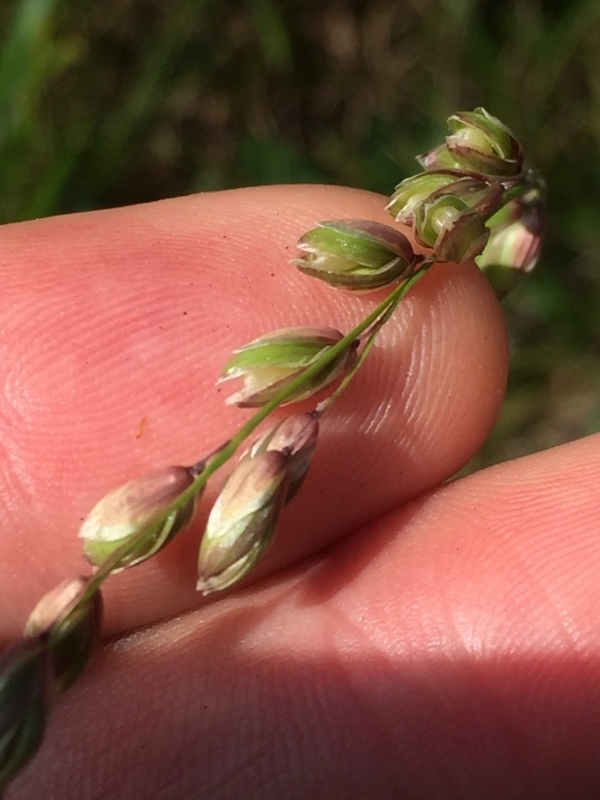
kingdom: Plantae
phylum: Tracheophyta
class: Liliopsida
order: Poales
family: Poaceae
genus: Melica
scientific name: Melica nutans
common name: Mountain melick
